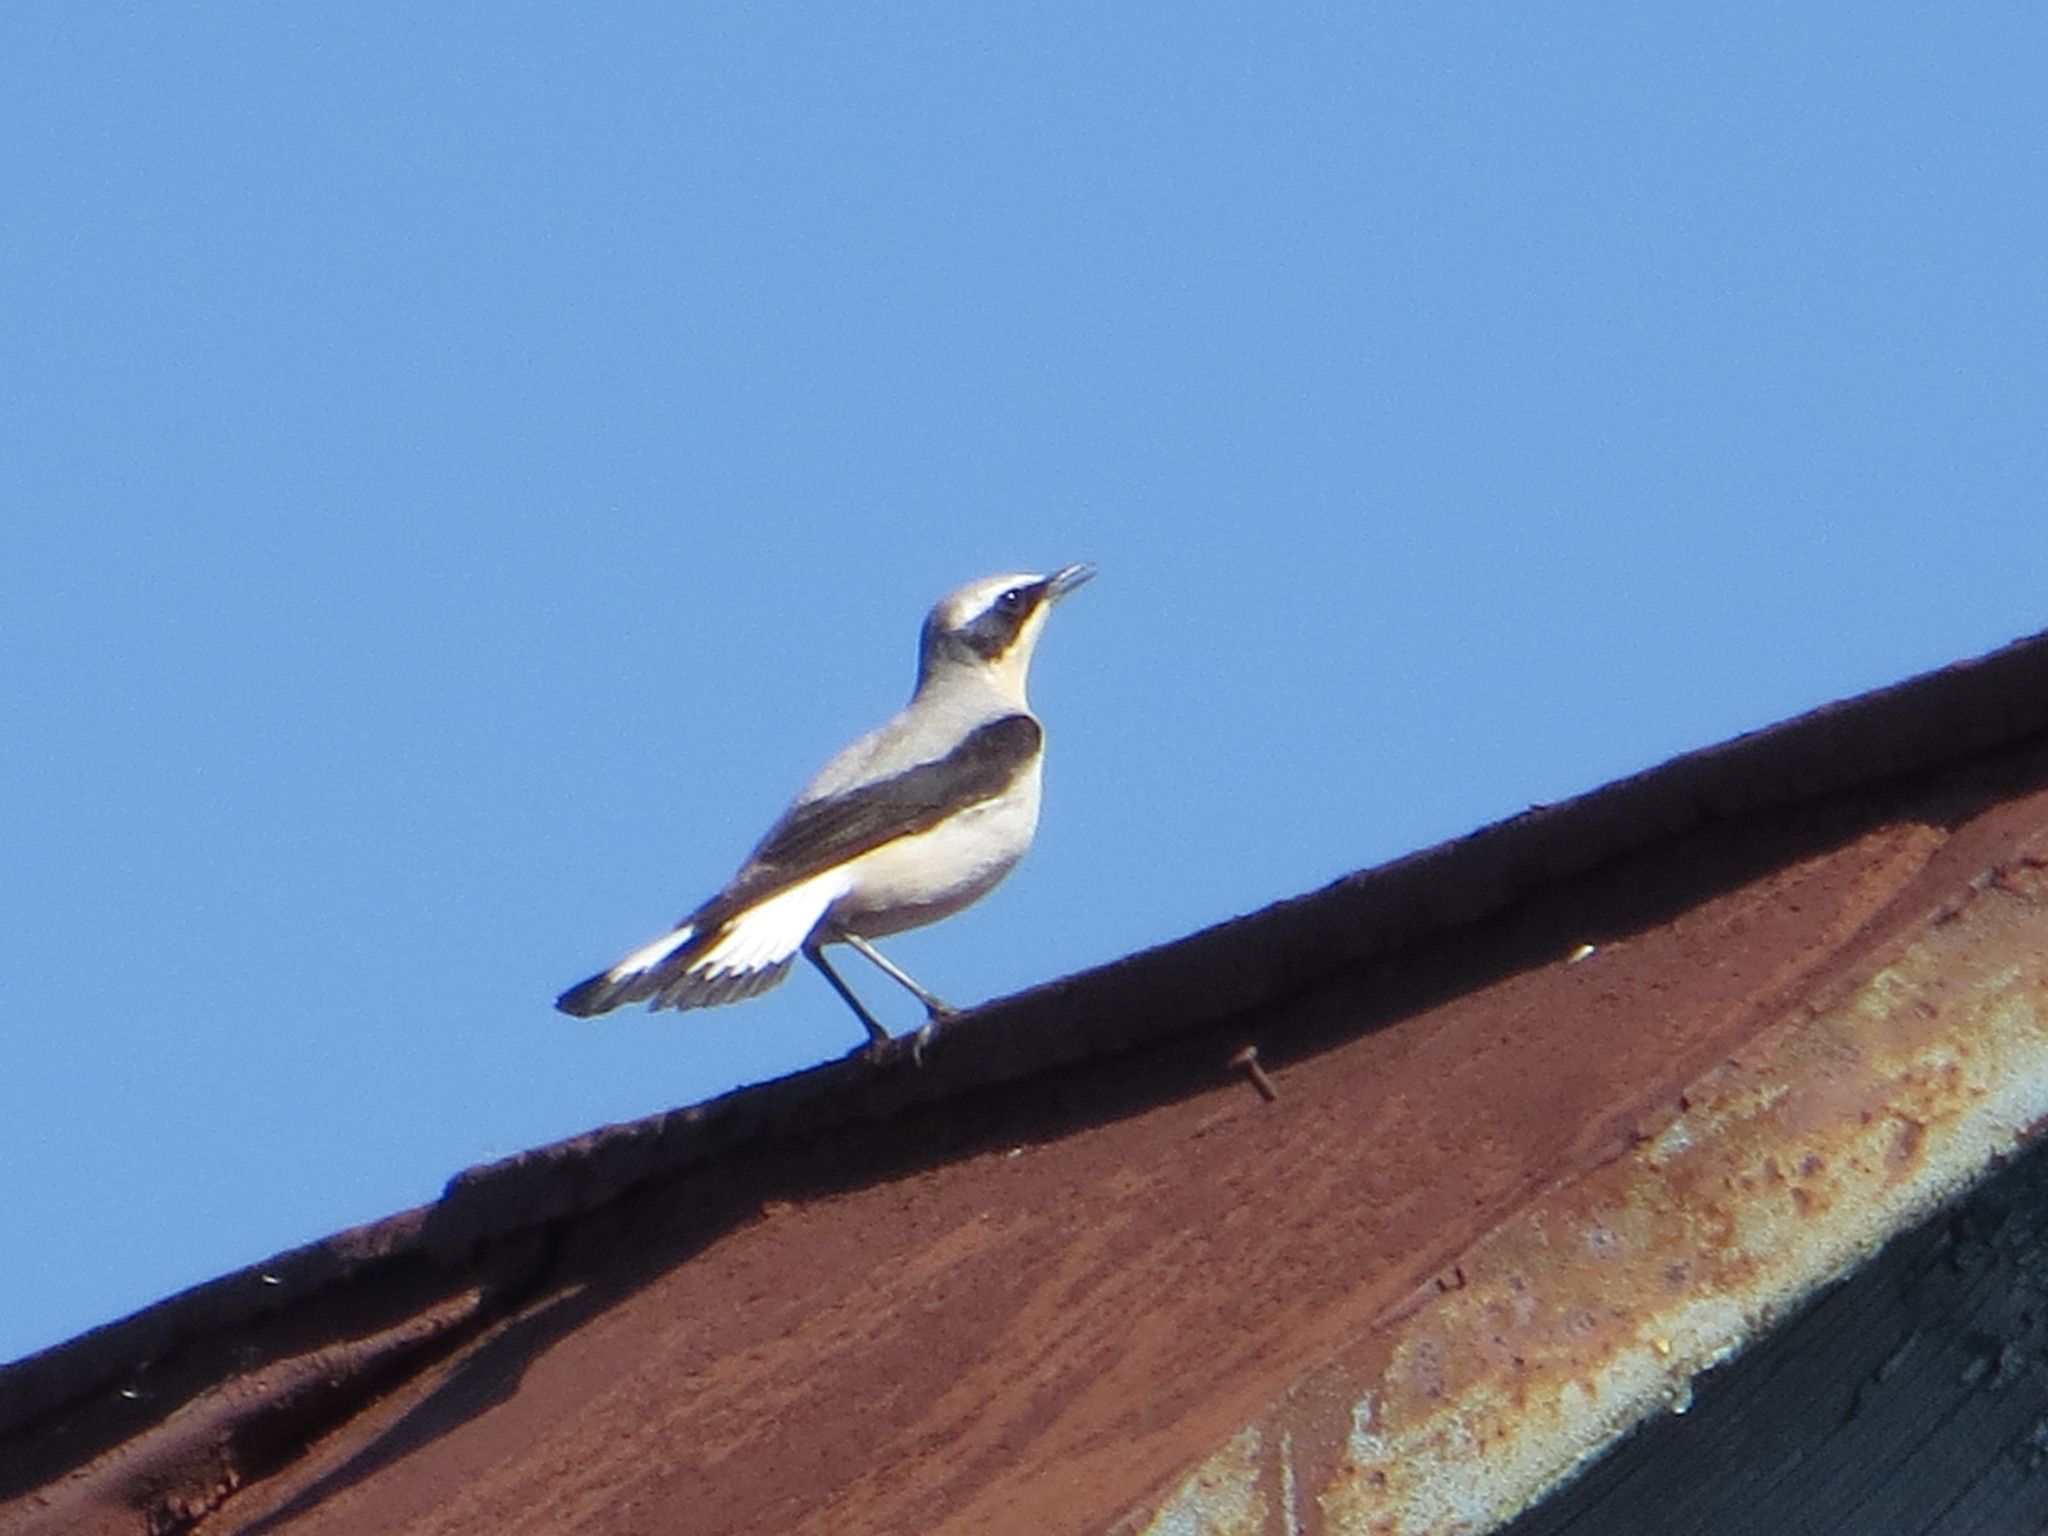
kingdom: Animalia
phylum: Chordata
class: Aves
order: Passeriformes
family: Muscicapidae
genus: Oenanthe
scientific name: Oenanthe oenanthe
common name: Northern wheatear
